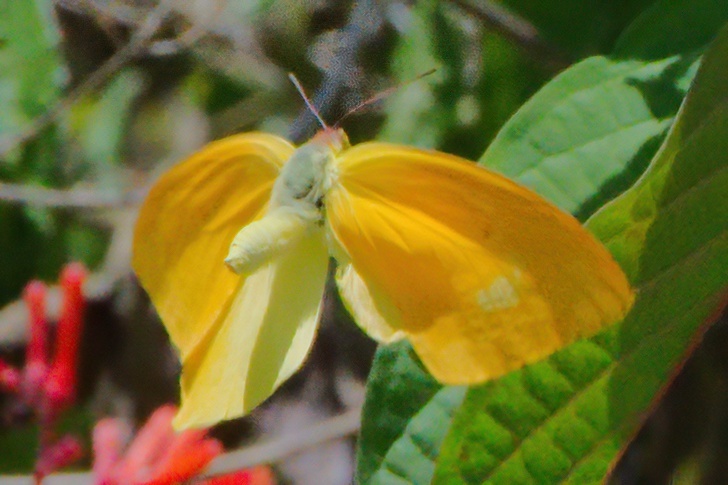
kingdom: Animalia
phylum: Arthropoda
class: Insecta
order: Lepidoptera
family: Pieridae
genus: Phoebis
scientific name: Phoebis agarithe
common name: Large orange sulphur
